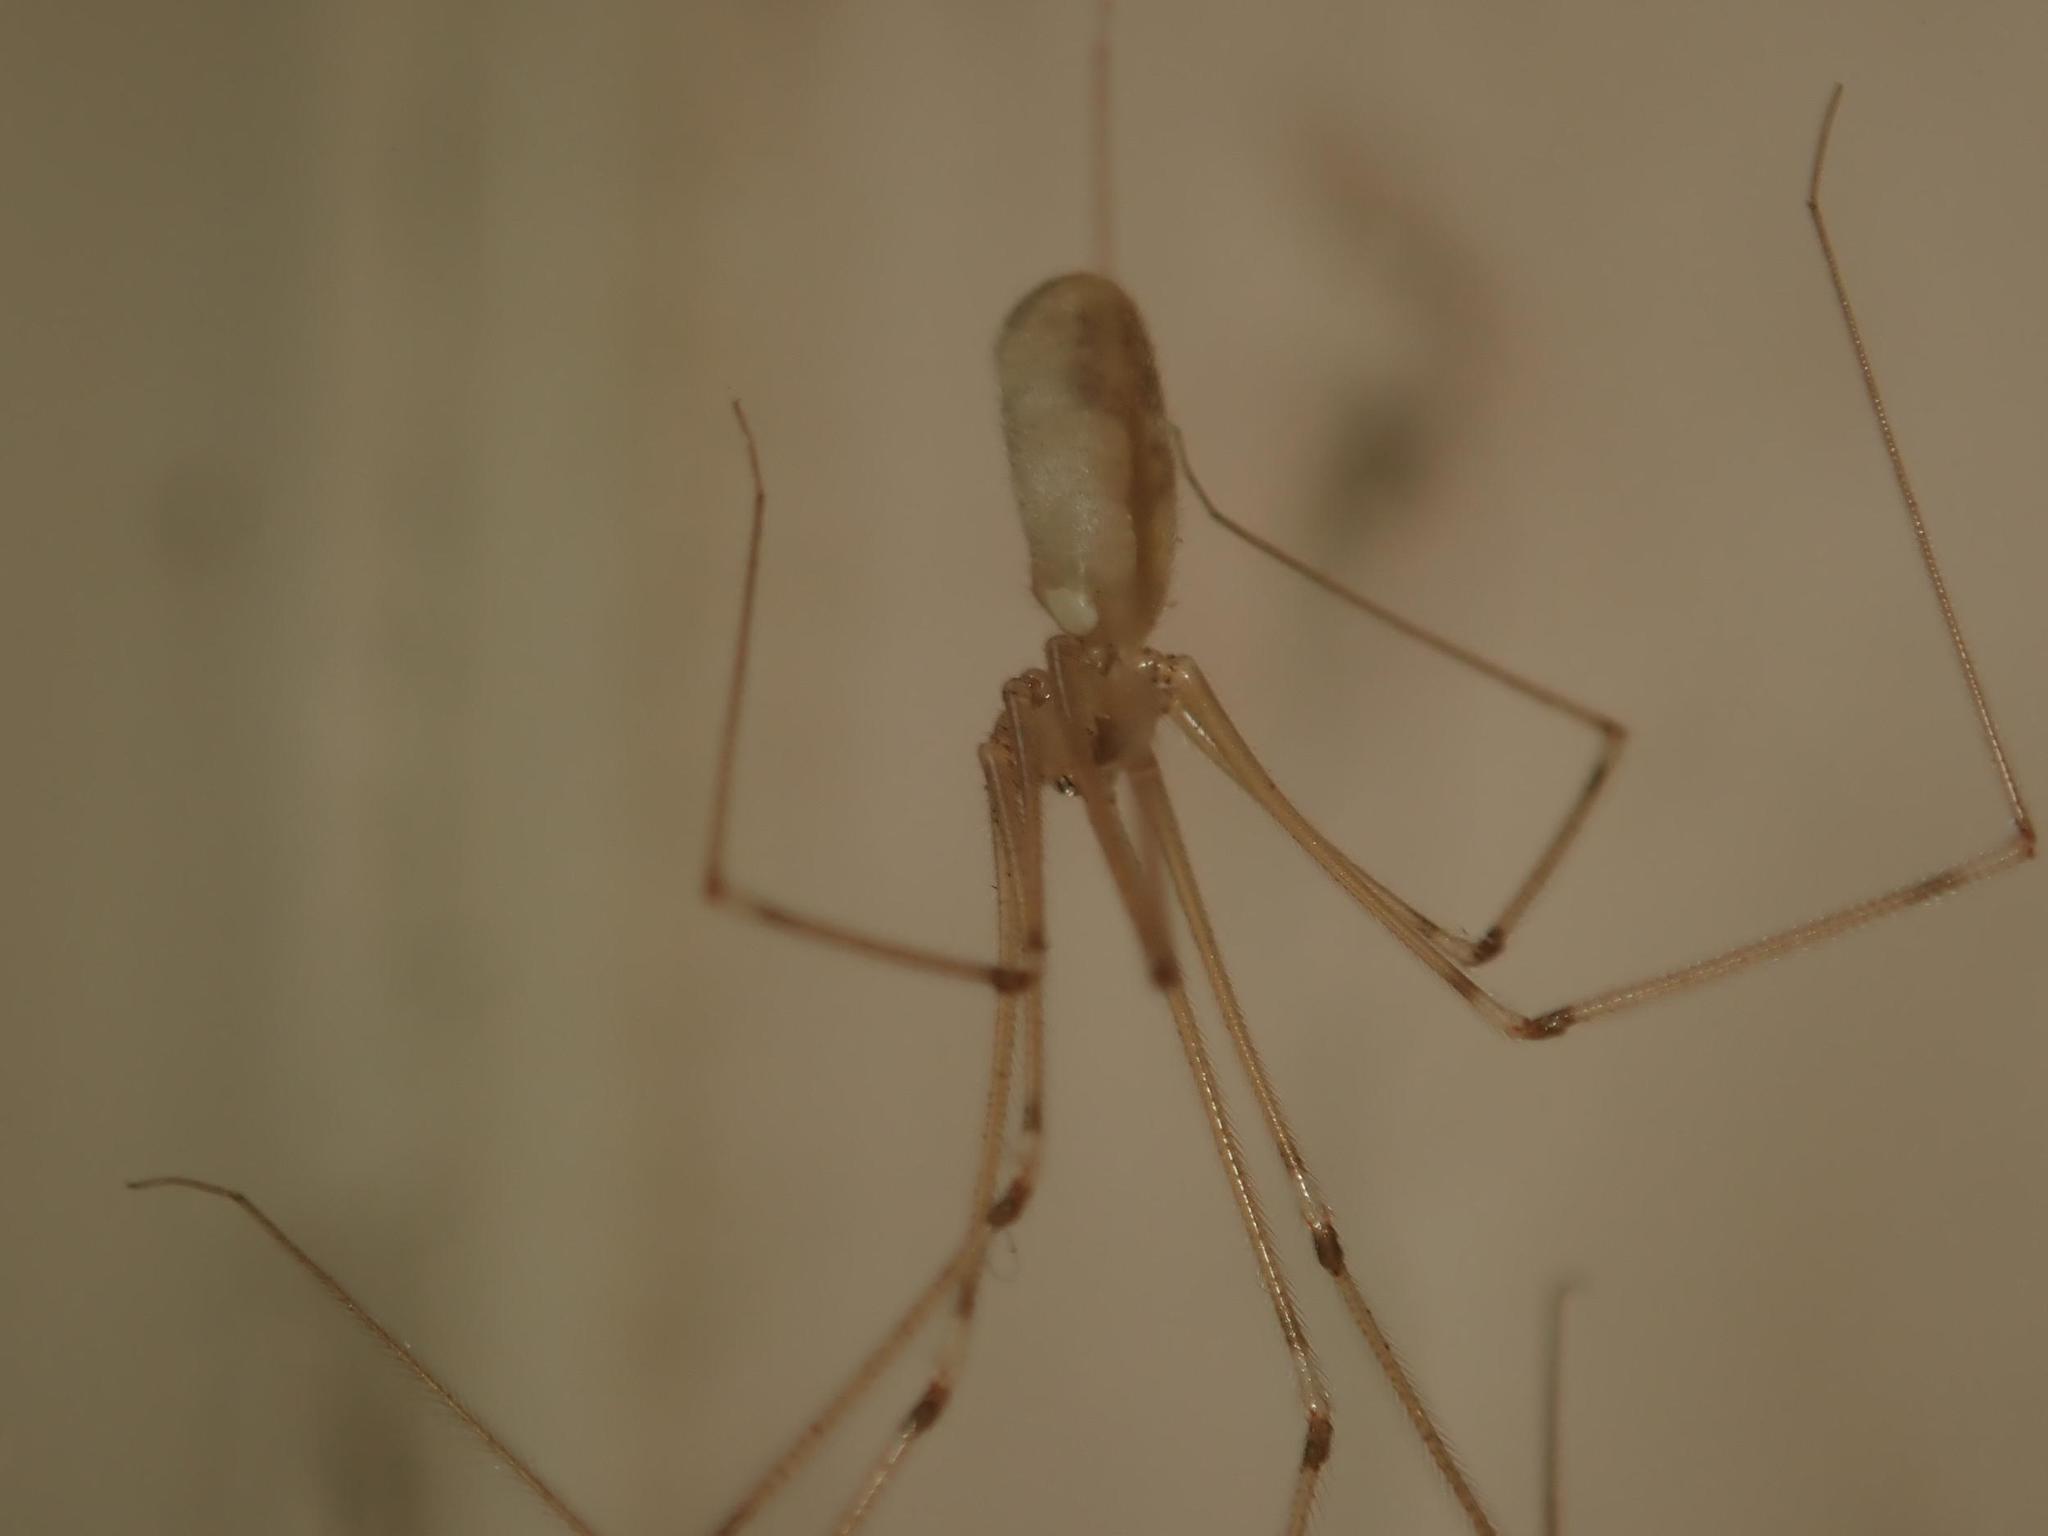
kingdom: Animalia
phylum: Arthropoda
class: Arachnida
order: Araneae
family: Pholcidae
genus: Pholcus
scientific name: Pholcus phalangioides
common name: Longbodied cellar spider
